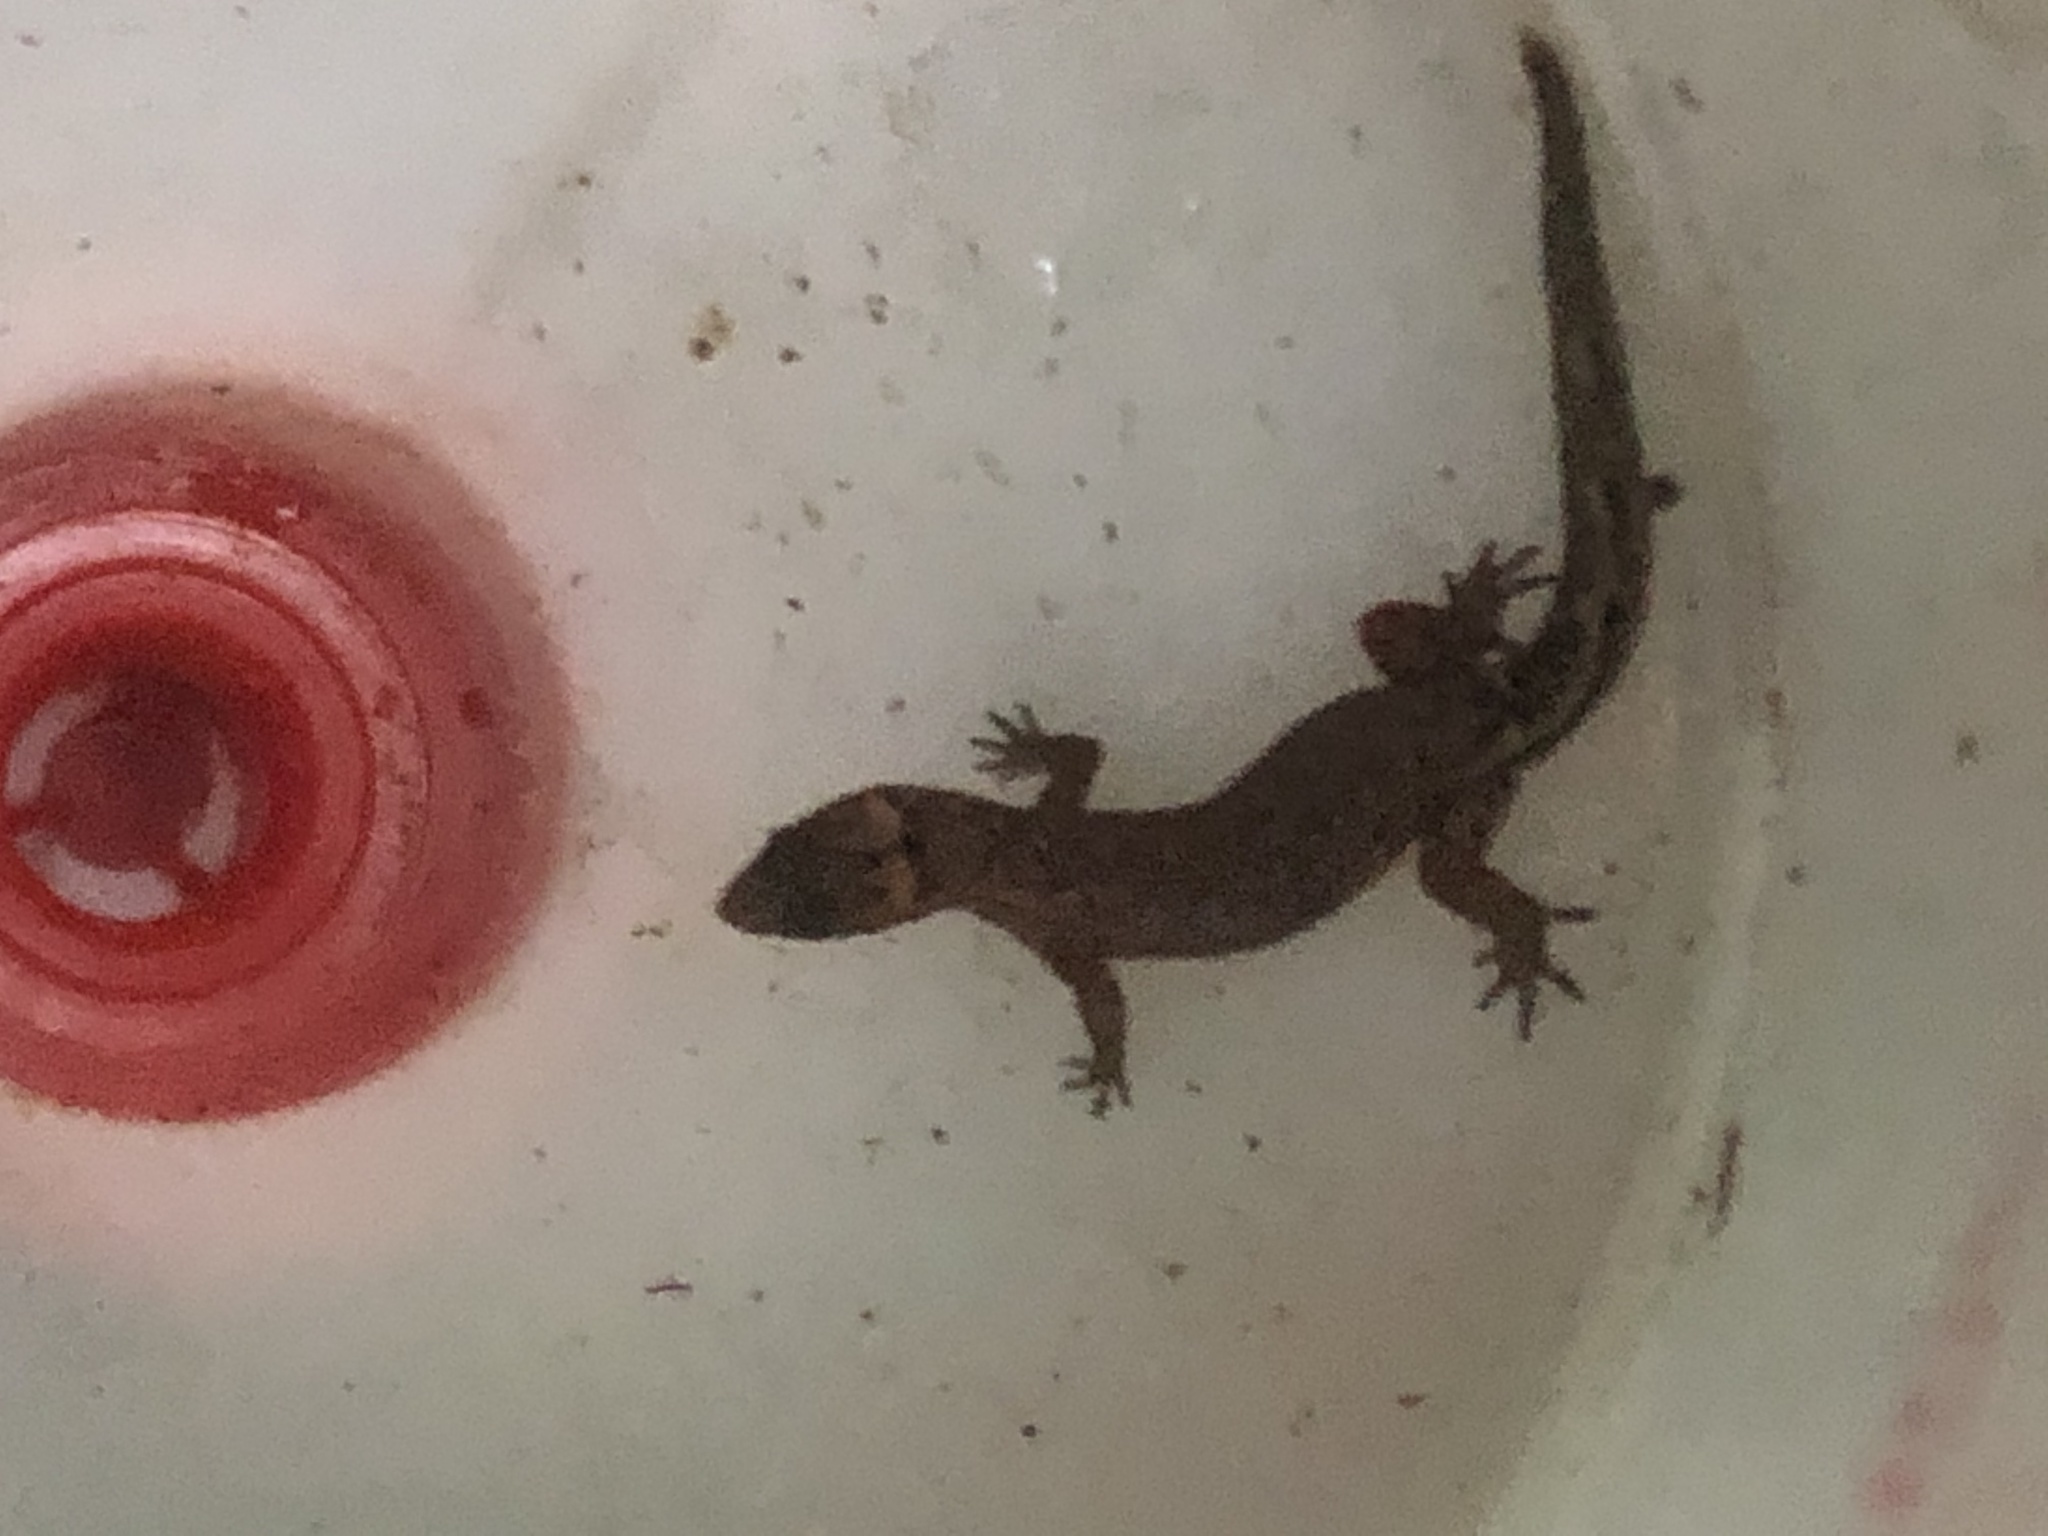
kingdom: Animalia
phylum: Chordata
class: Squamata
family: Sphaerodactylidae
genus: Pseudogonatodes
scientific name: Pseudogonatodes guianensis
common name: Amazon pigmy gecko
